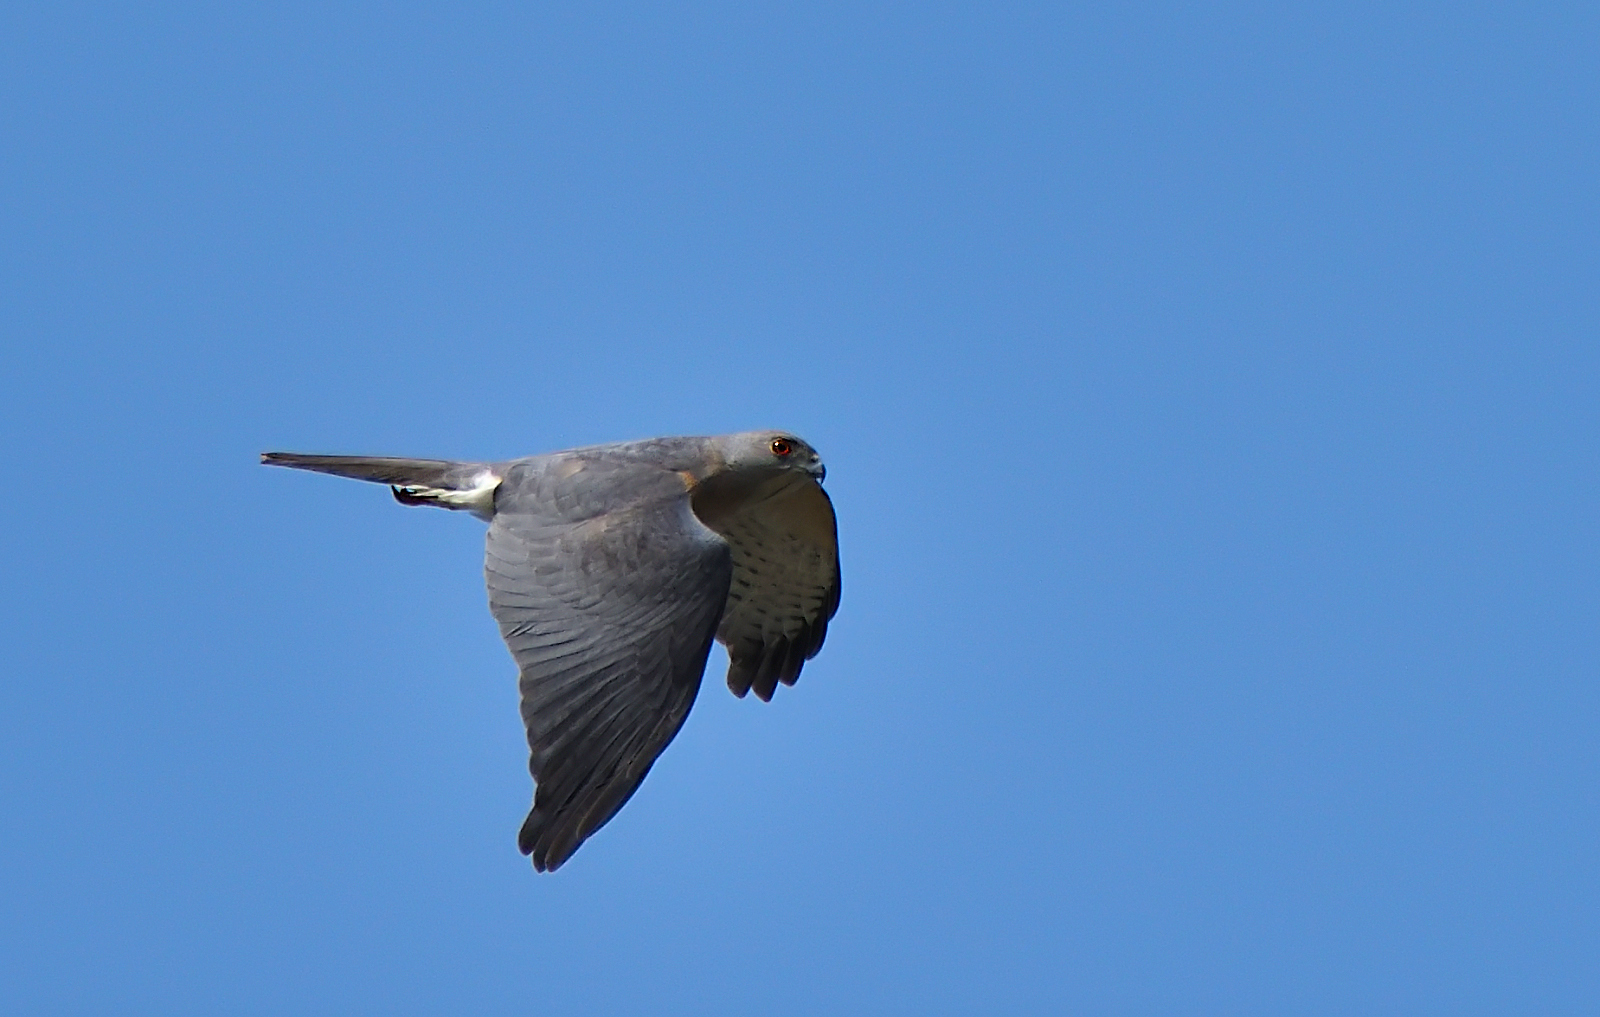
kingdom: Animalia
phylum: Chordata
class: Aves
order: Accipitriformes
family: Accipitridae
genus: Accipiter
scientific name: Accipiter badius
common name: Shikra
